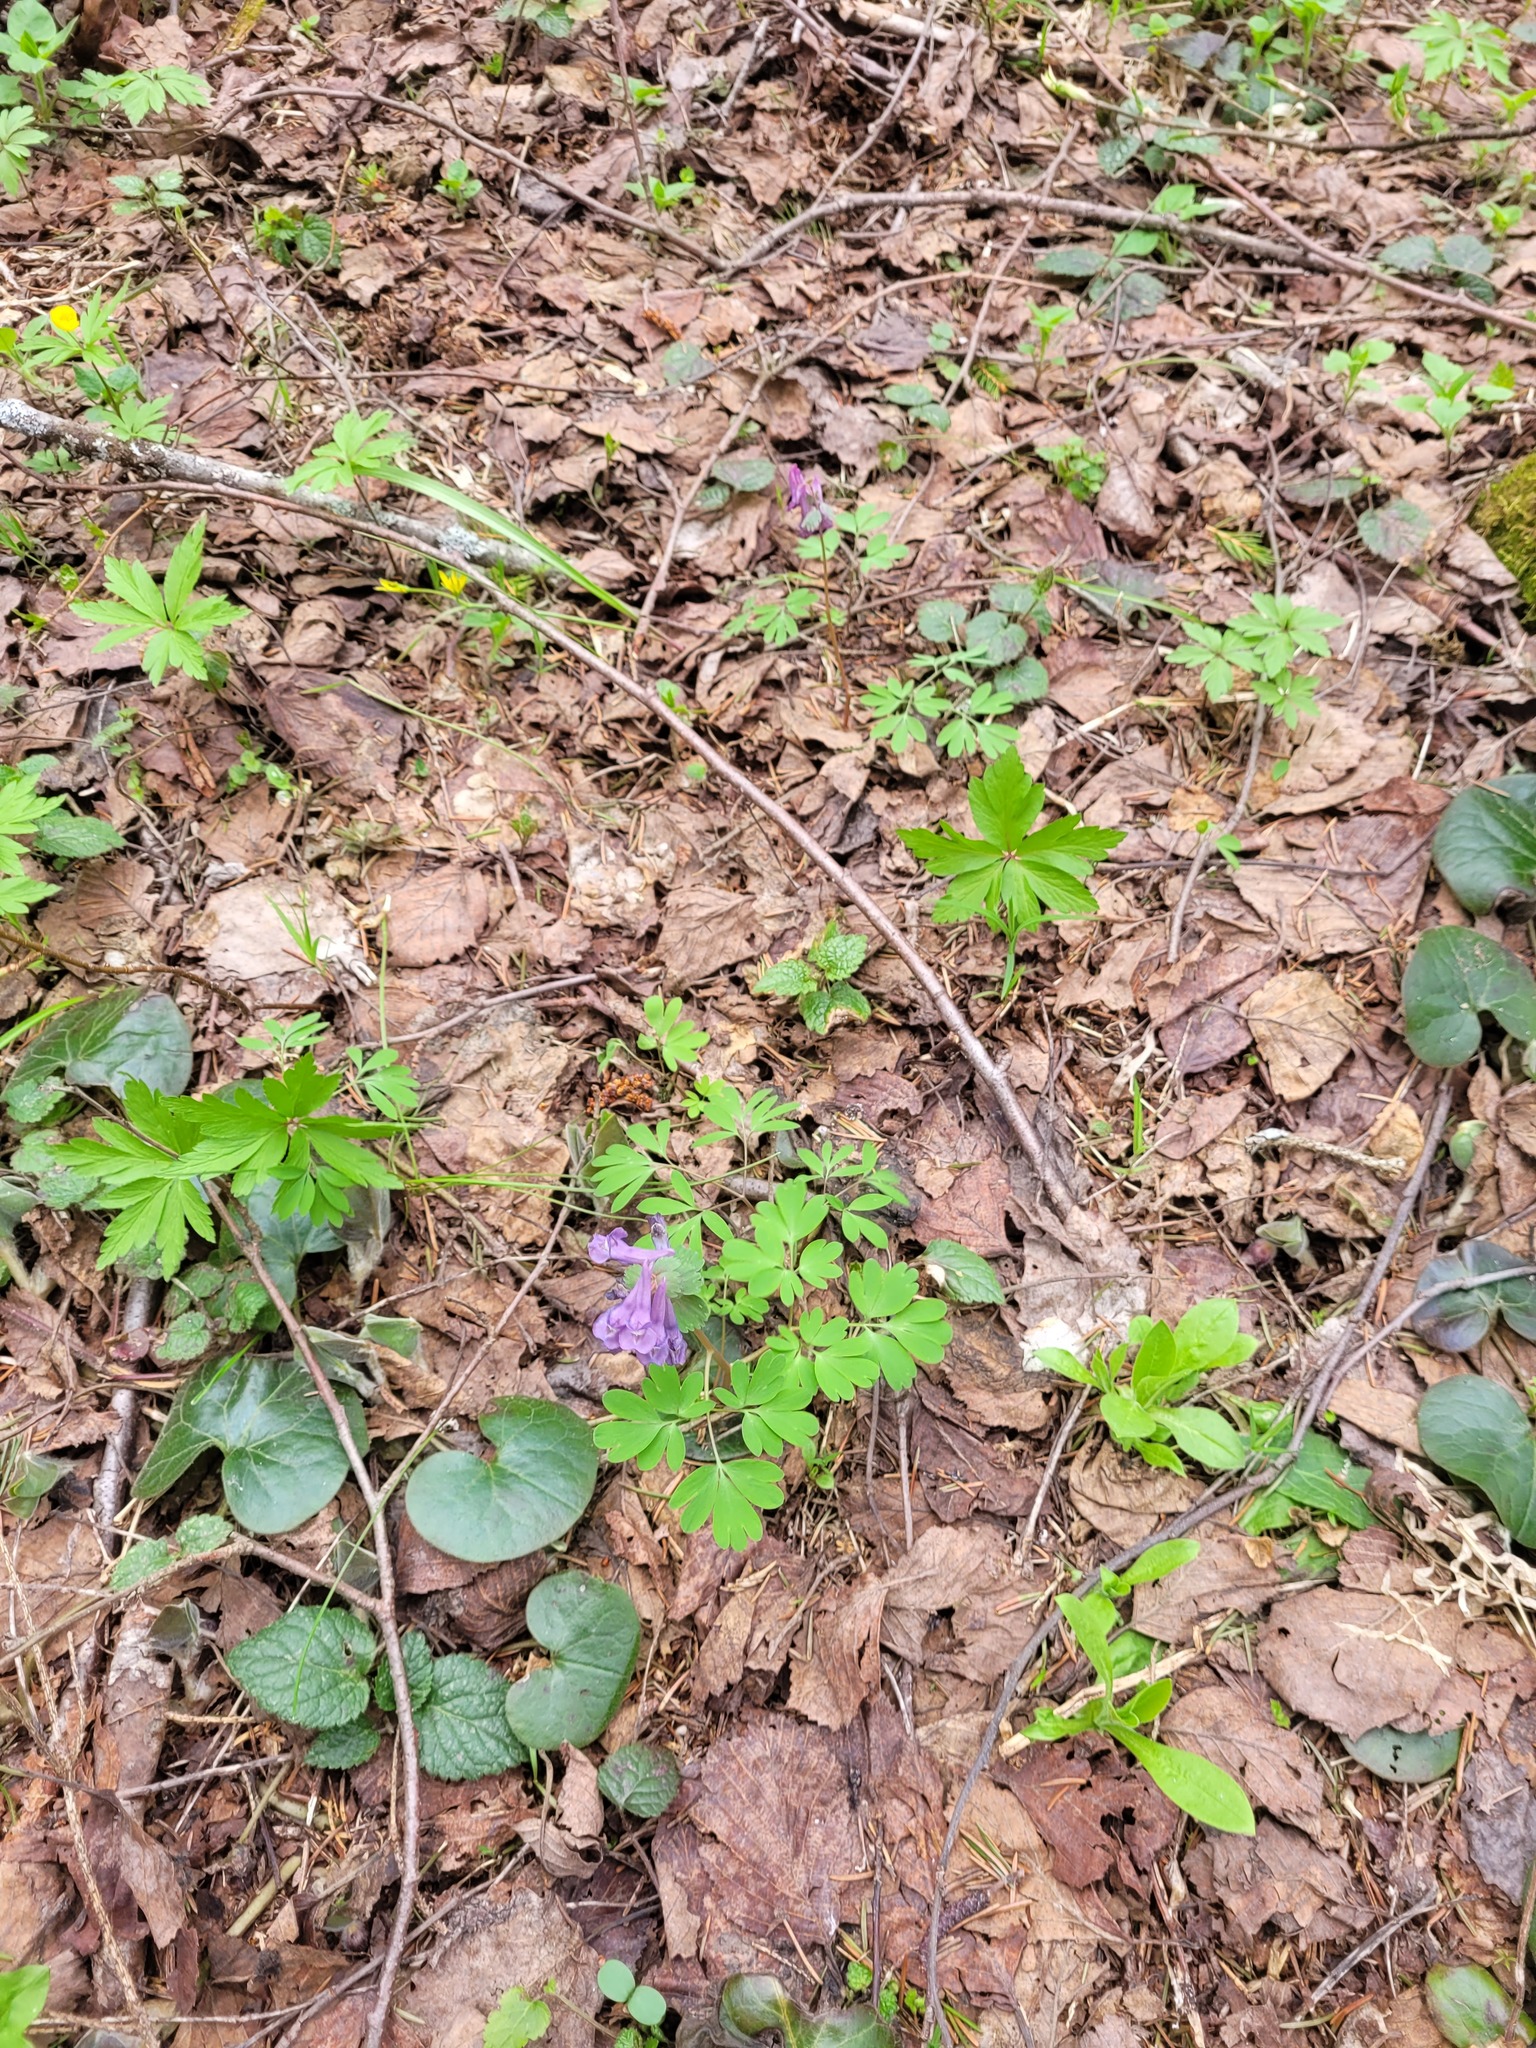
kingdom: Plantae
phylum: Tracheophyta
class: Magnoliopsida
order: Ranunculales
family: Papaveraceae
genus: Corydalis
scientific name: Corydalis solida
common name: Bird-in-a-bush
